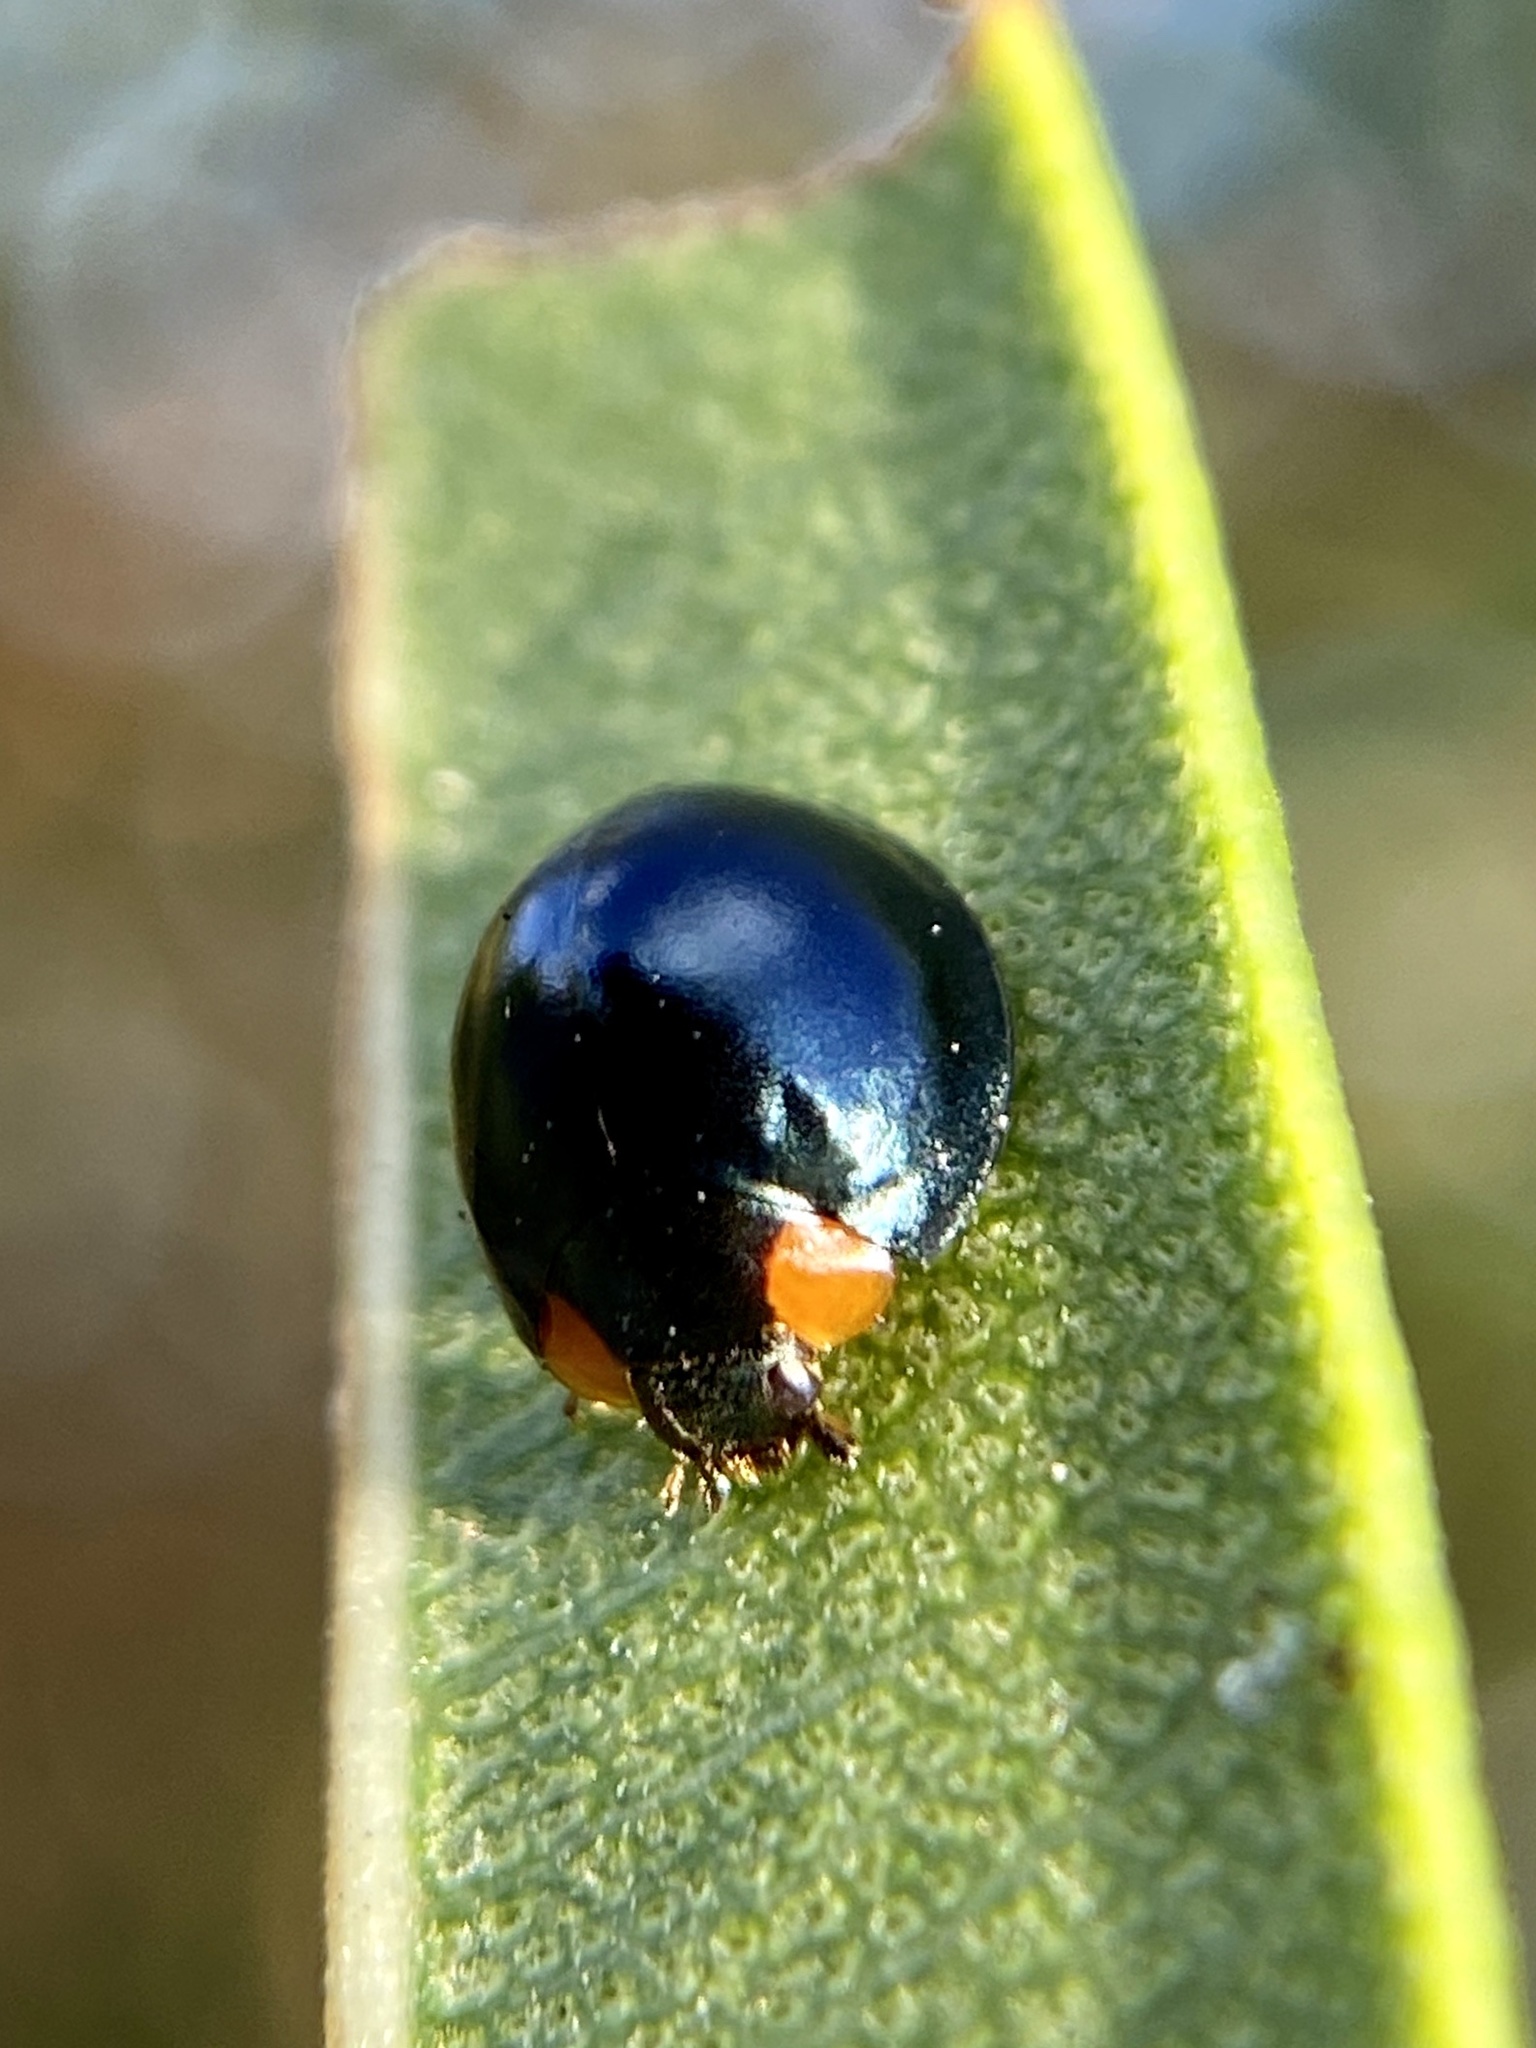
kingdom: Animalia
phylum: Arthropoda
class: Insecta
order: Coleoptera
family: Coccinellidae
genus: Curinus
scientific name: Curinus coeruleus
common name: Ladybird beetle
